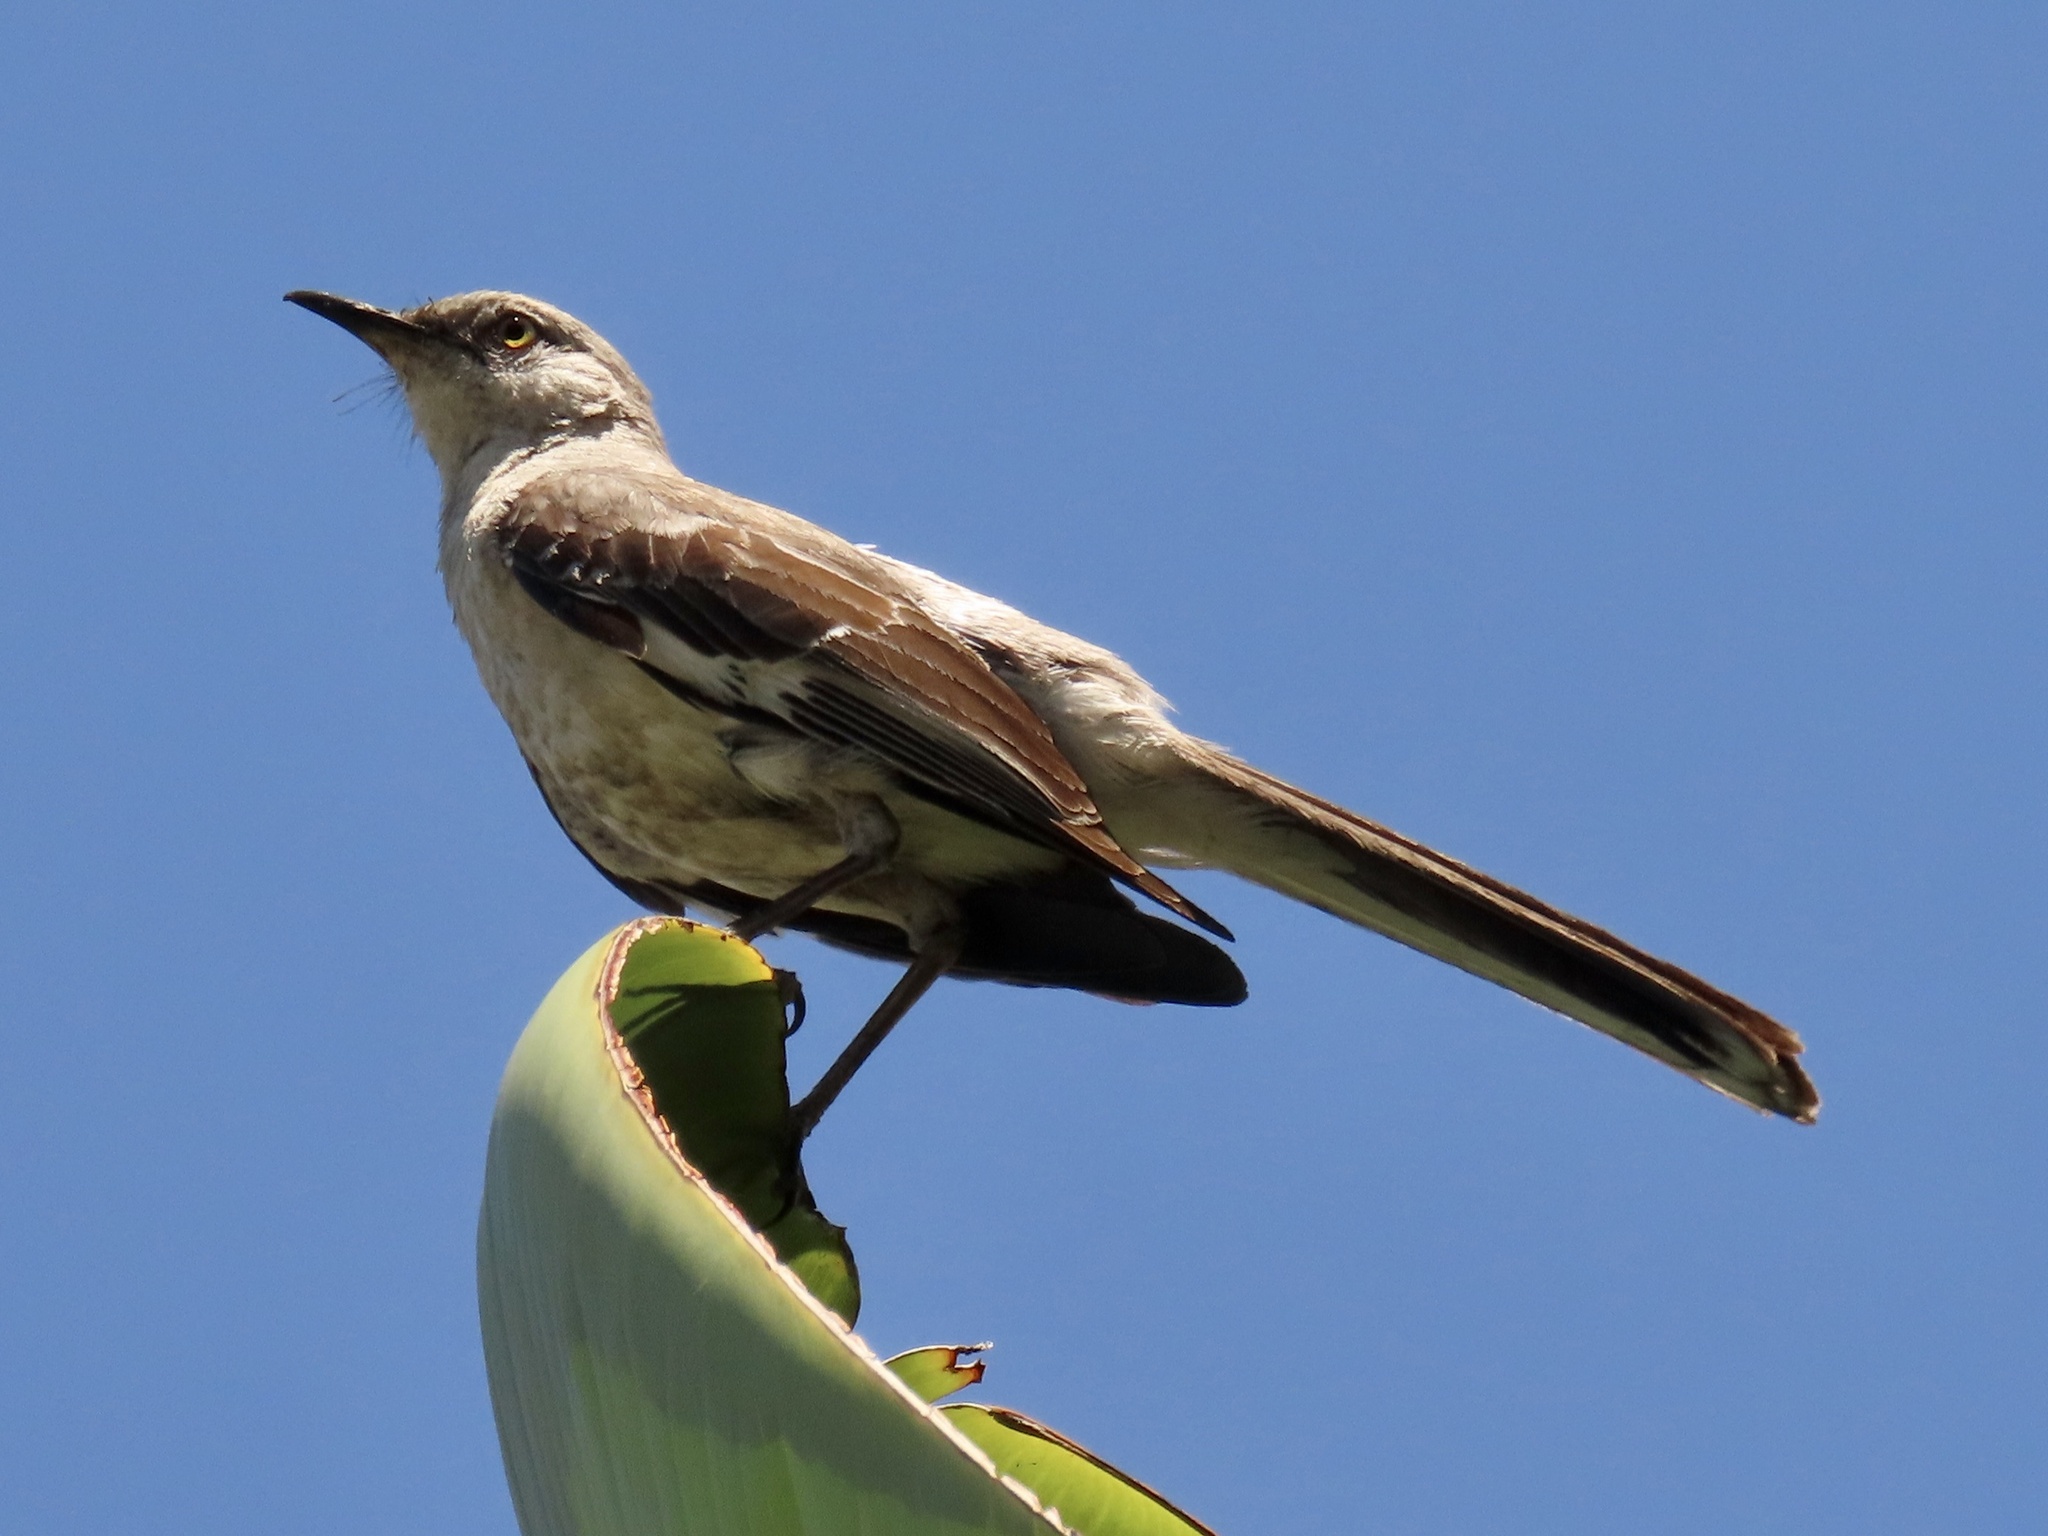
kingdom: Animalia
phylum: Chordata
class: Aves
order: Passeriformes
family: Mimidae
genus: Mimus
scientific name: Mimus polyglottos
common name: Northern mockingbird
